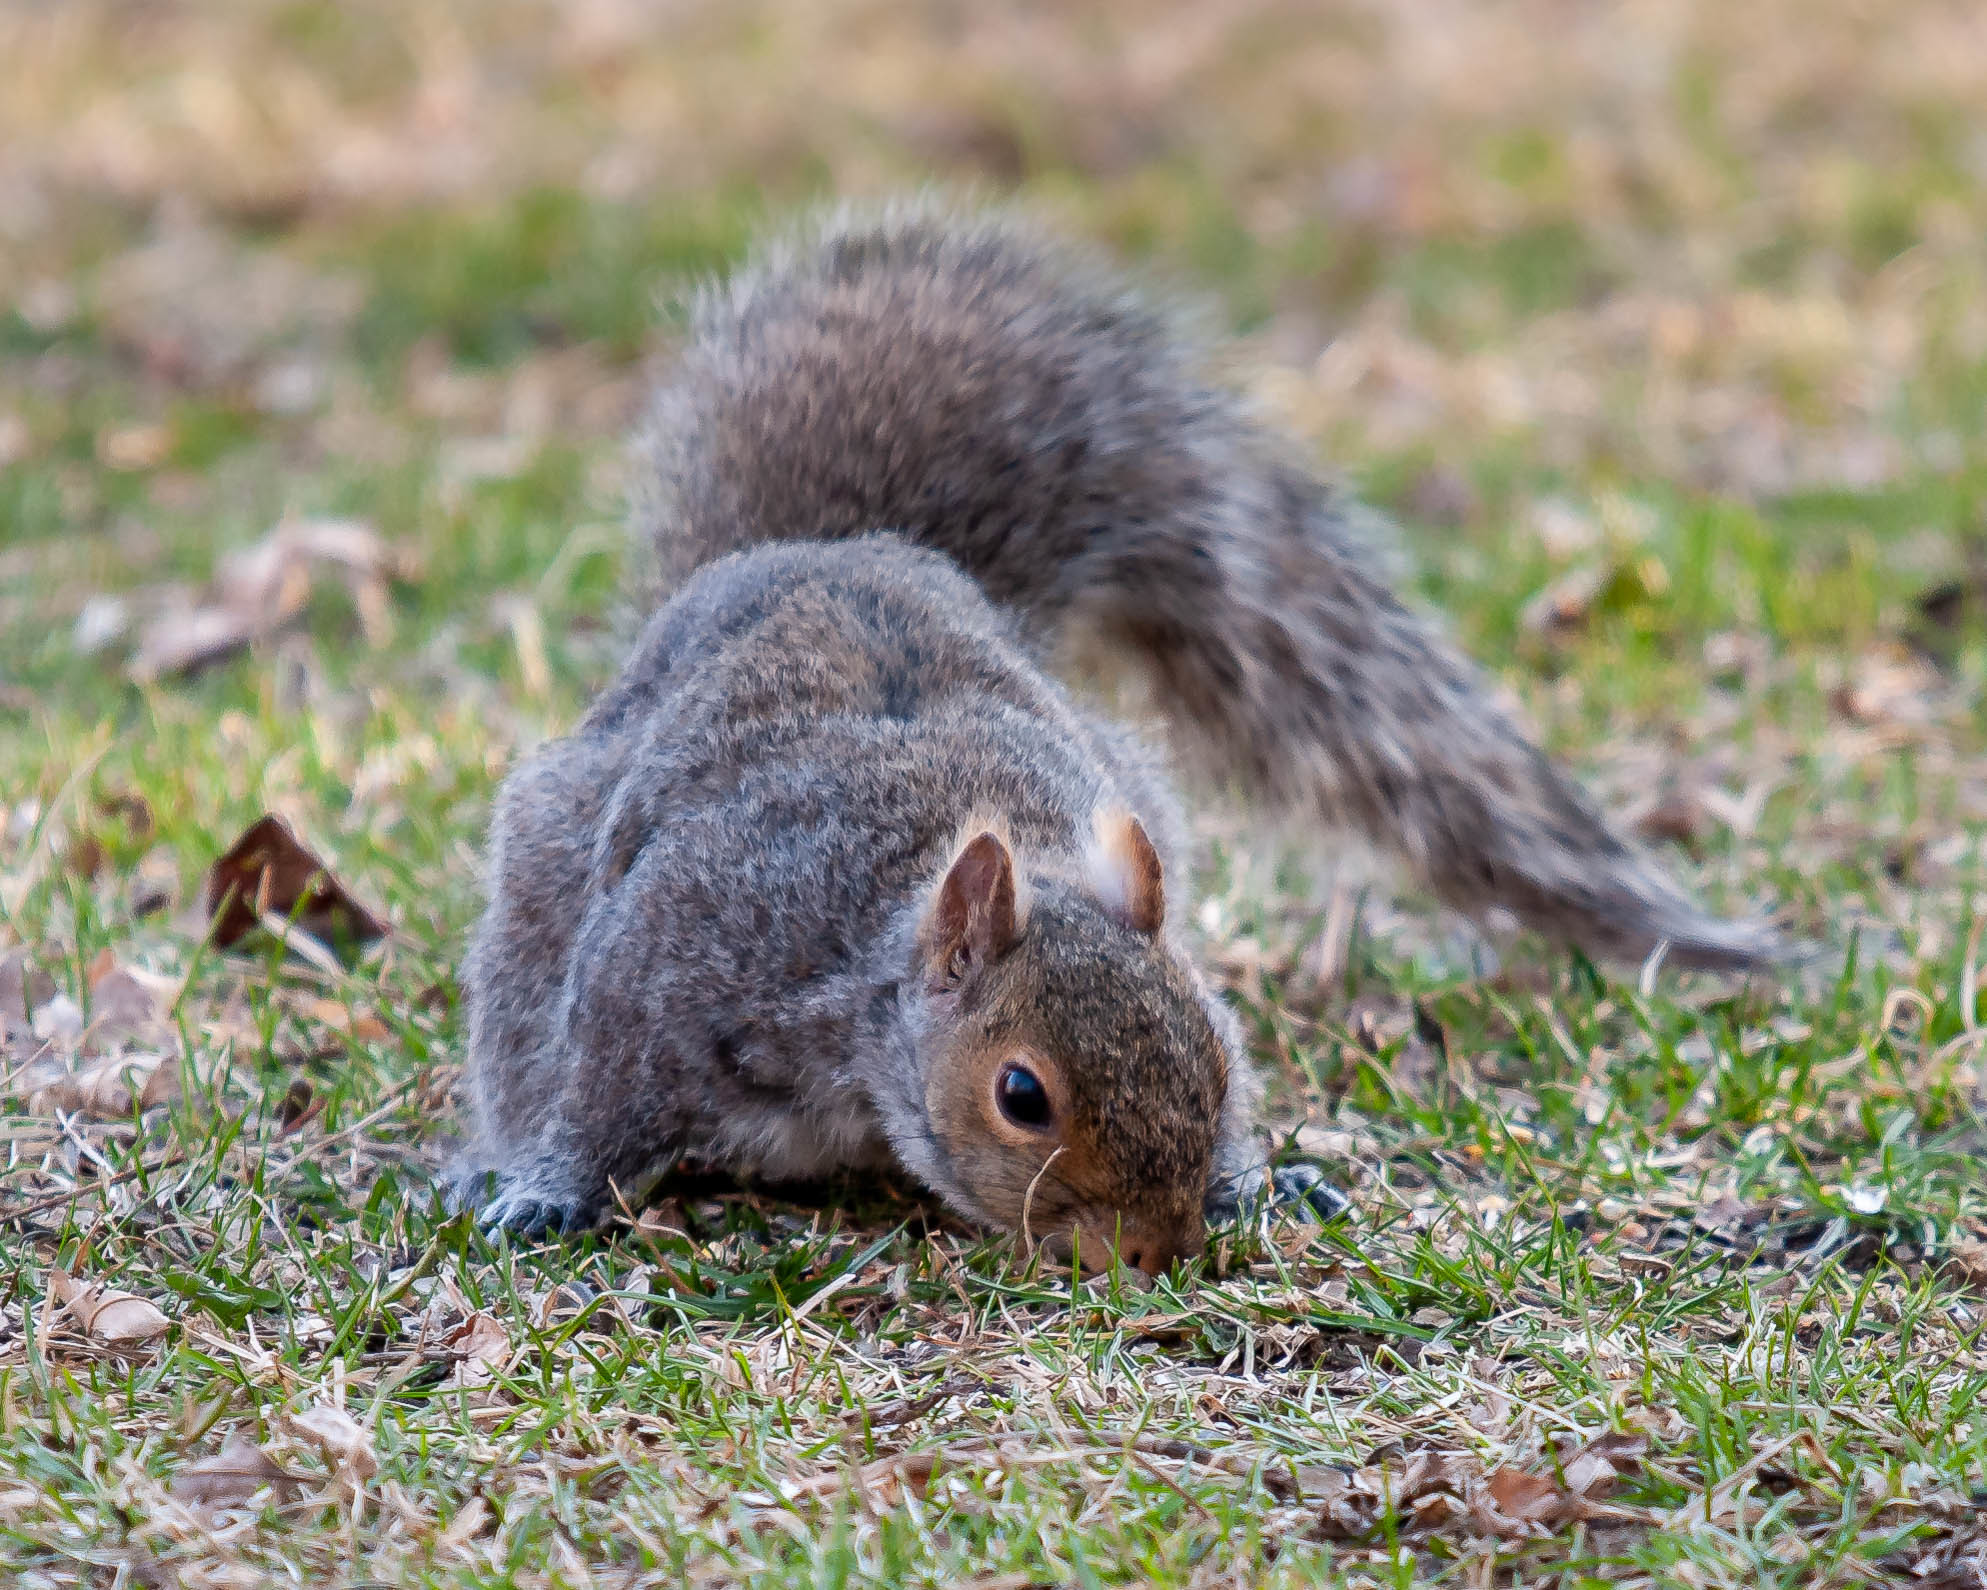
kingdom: Animalia
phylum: Chordata
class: Mammalia
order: Rodentia
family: Sciuridae
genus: Sciurus
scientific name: Sciurus carolinensis
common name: Eastern gray squirrel
